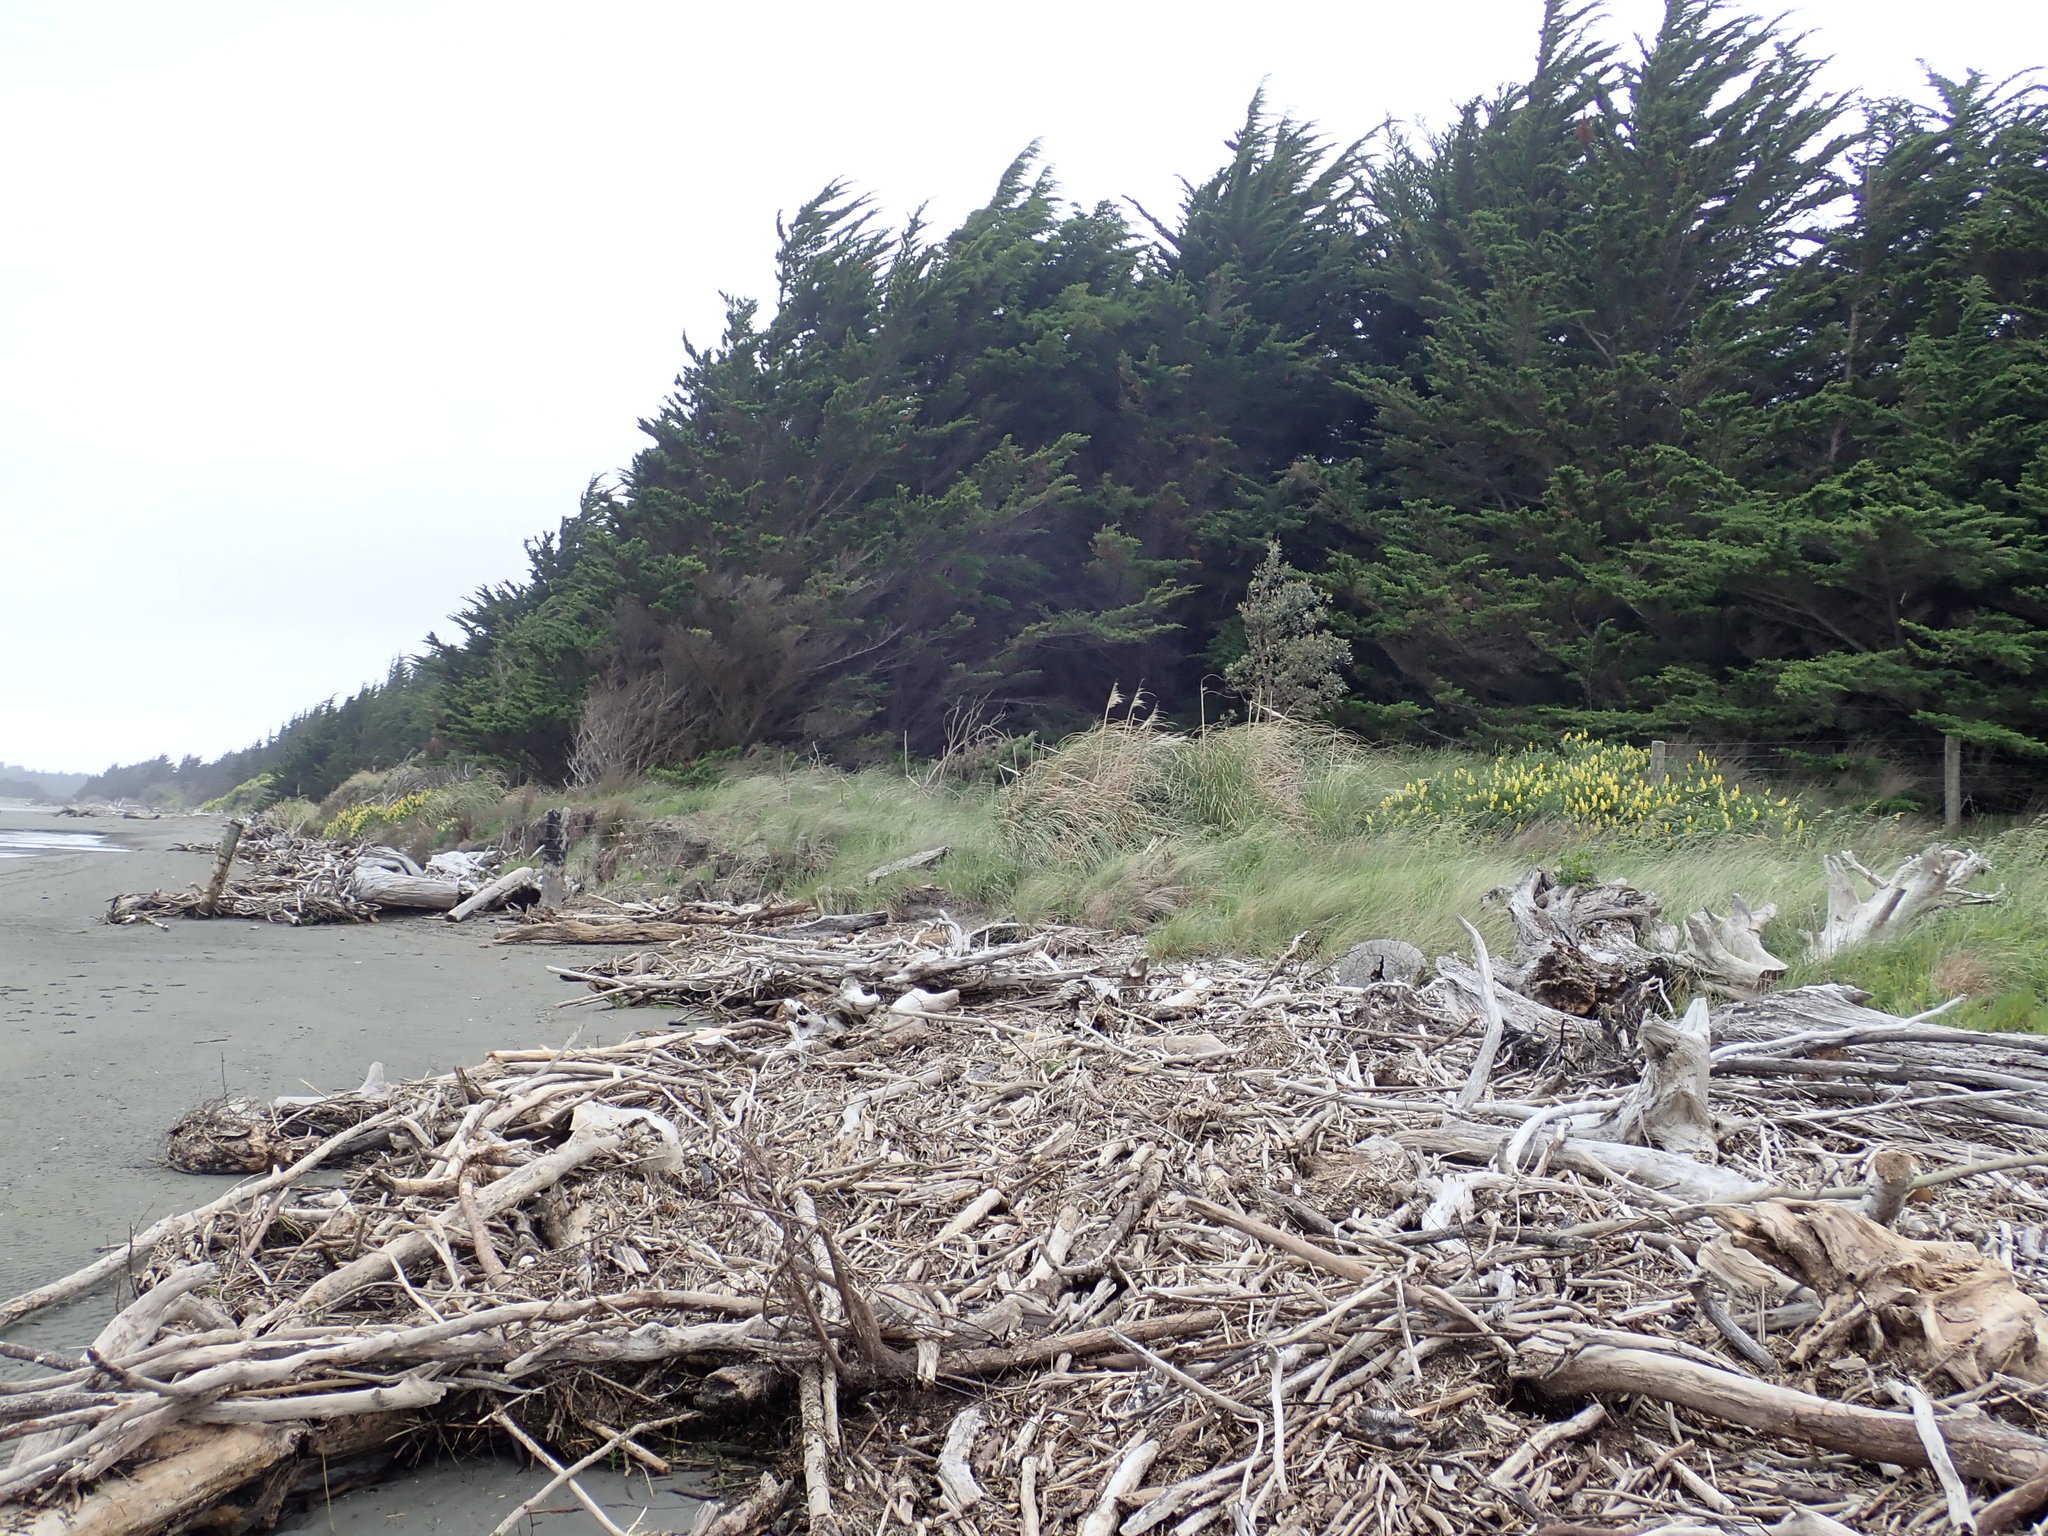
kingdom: Plantae
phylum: Tracheophyta
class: Magnoliopsida
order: Fabales
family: Fabaceae
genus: Lupinus
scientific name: Lupinus arboreus
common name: Yellow bush lupine
